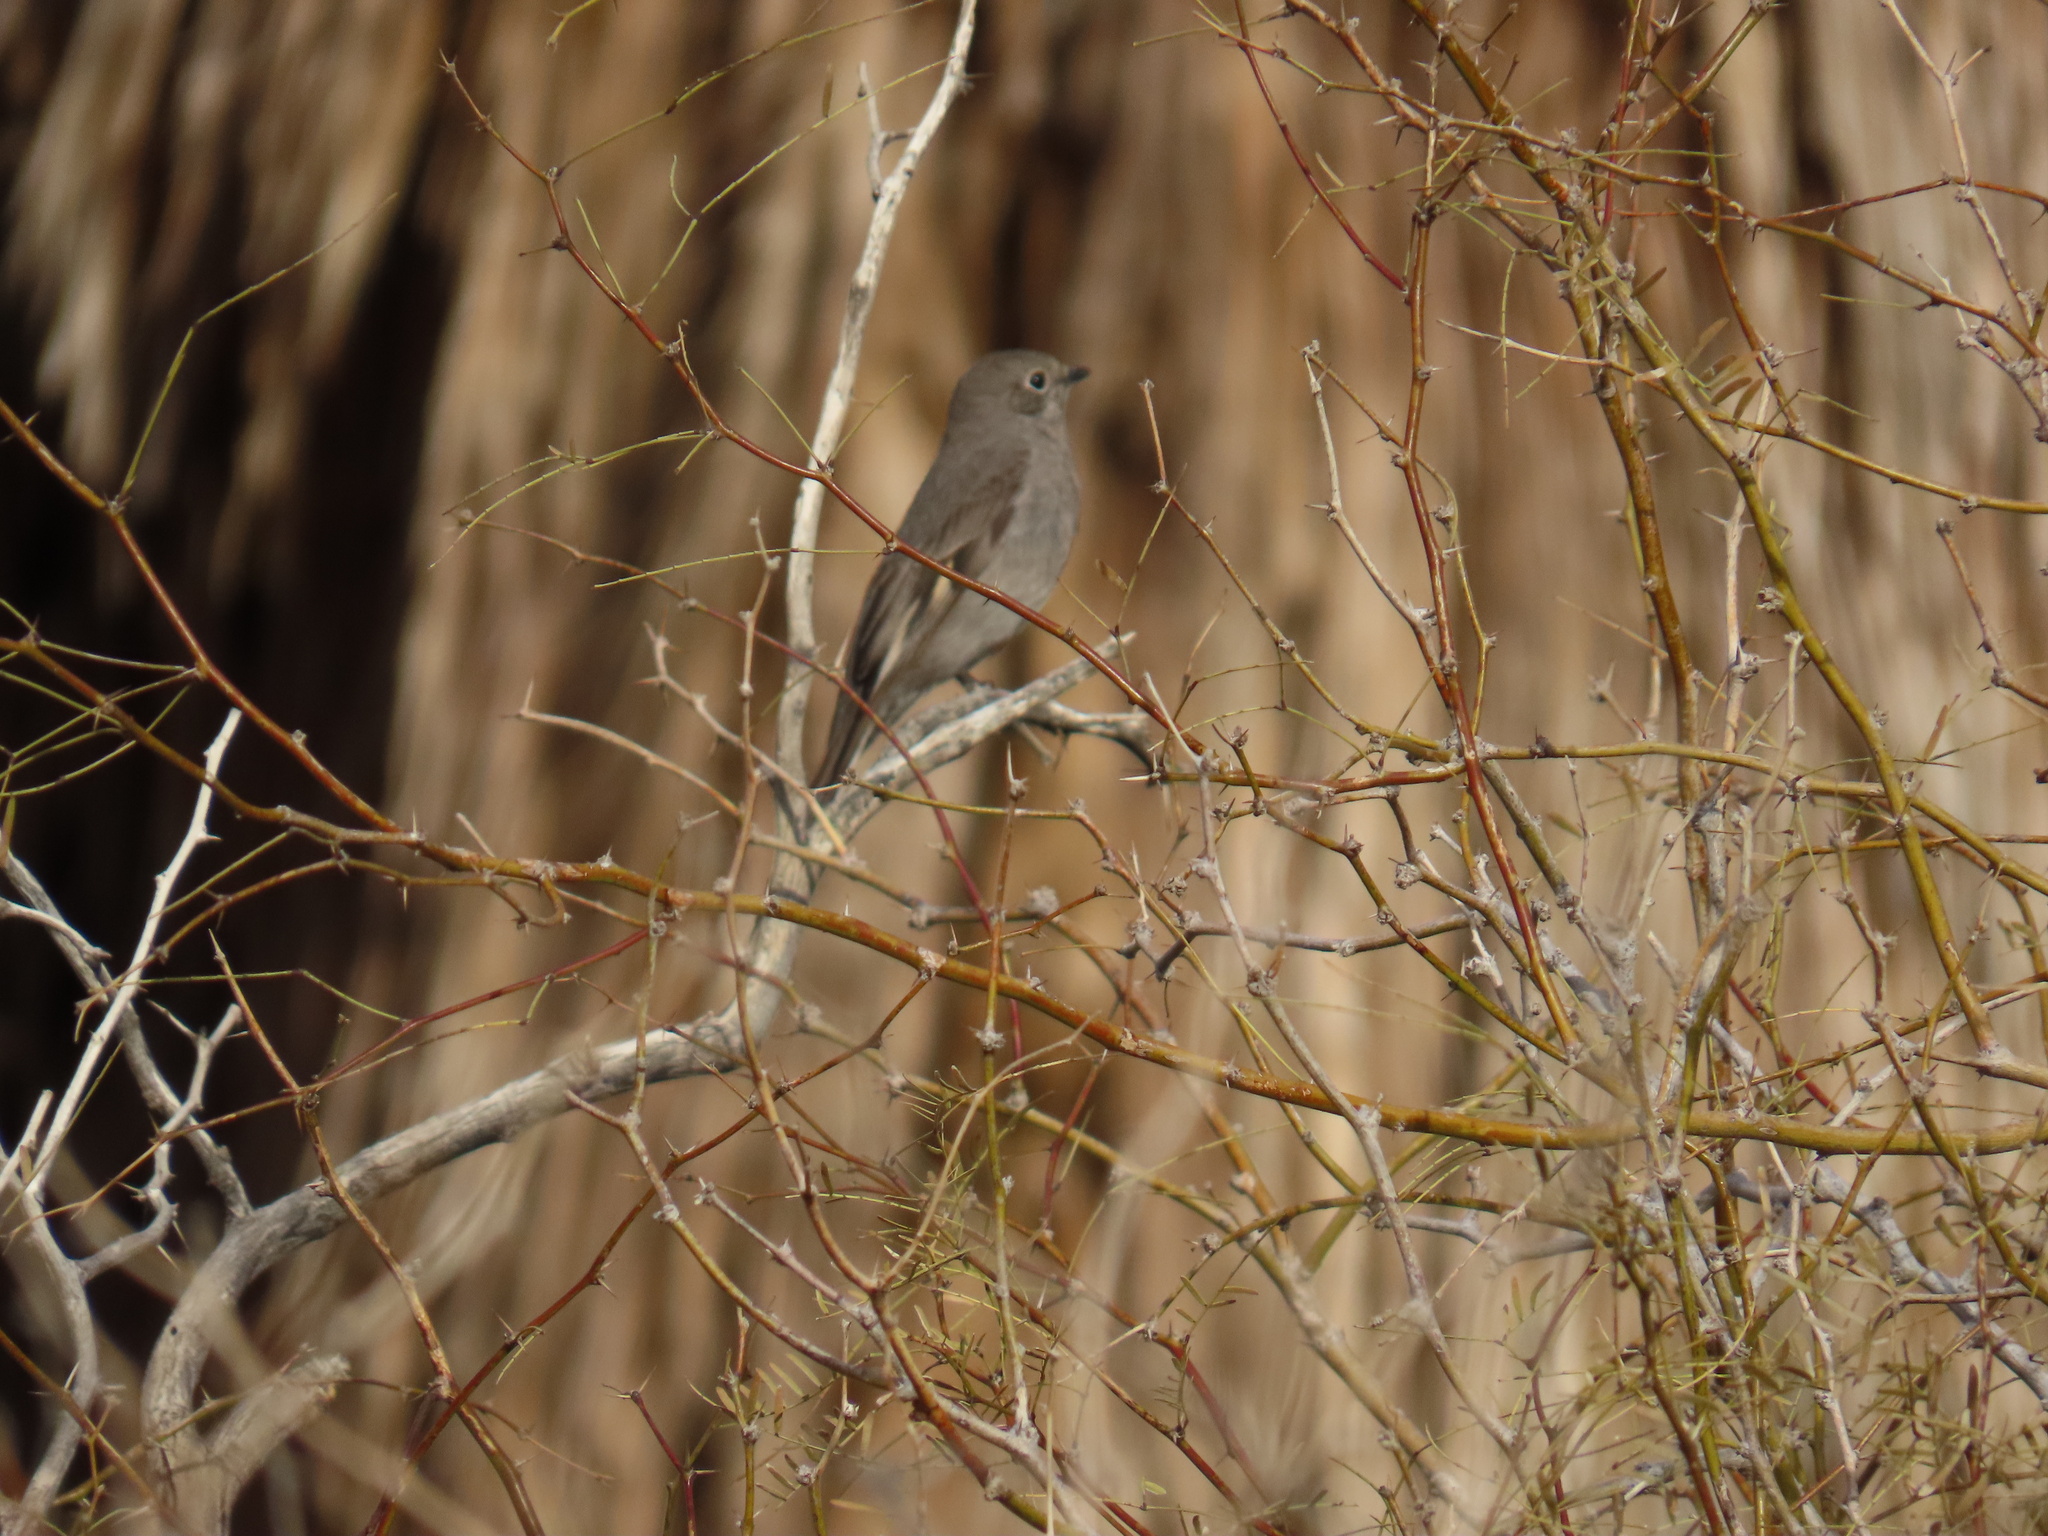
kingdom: Animalia
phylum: Chordata
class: Aves
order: Passeriformes
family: Turdidae
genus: Myadestes
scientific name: Myadestes townsendi
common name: Townsend's solitaire
